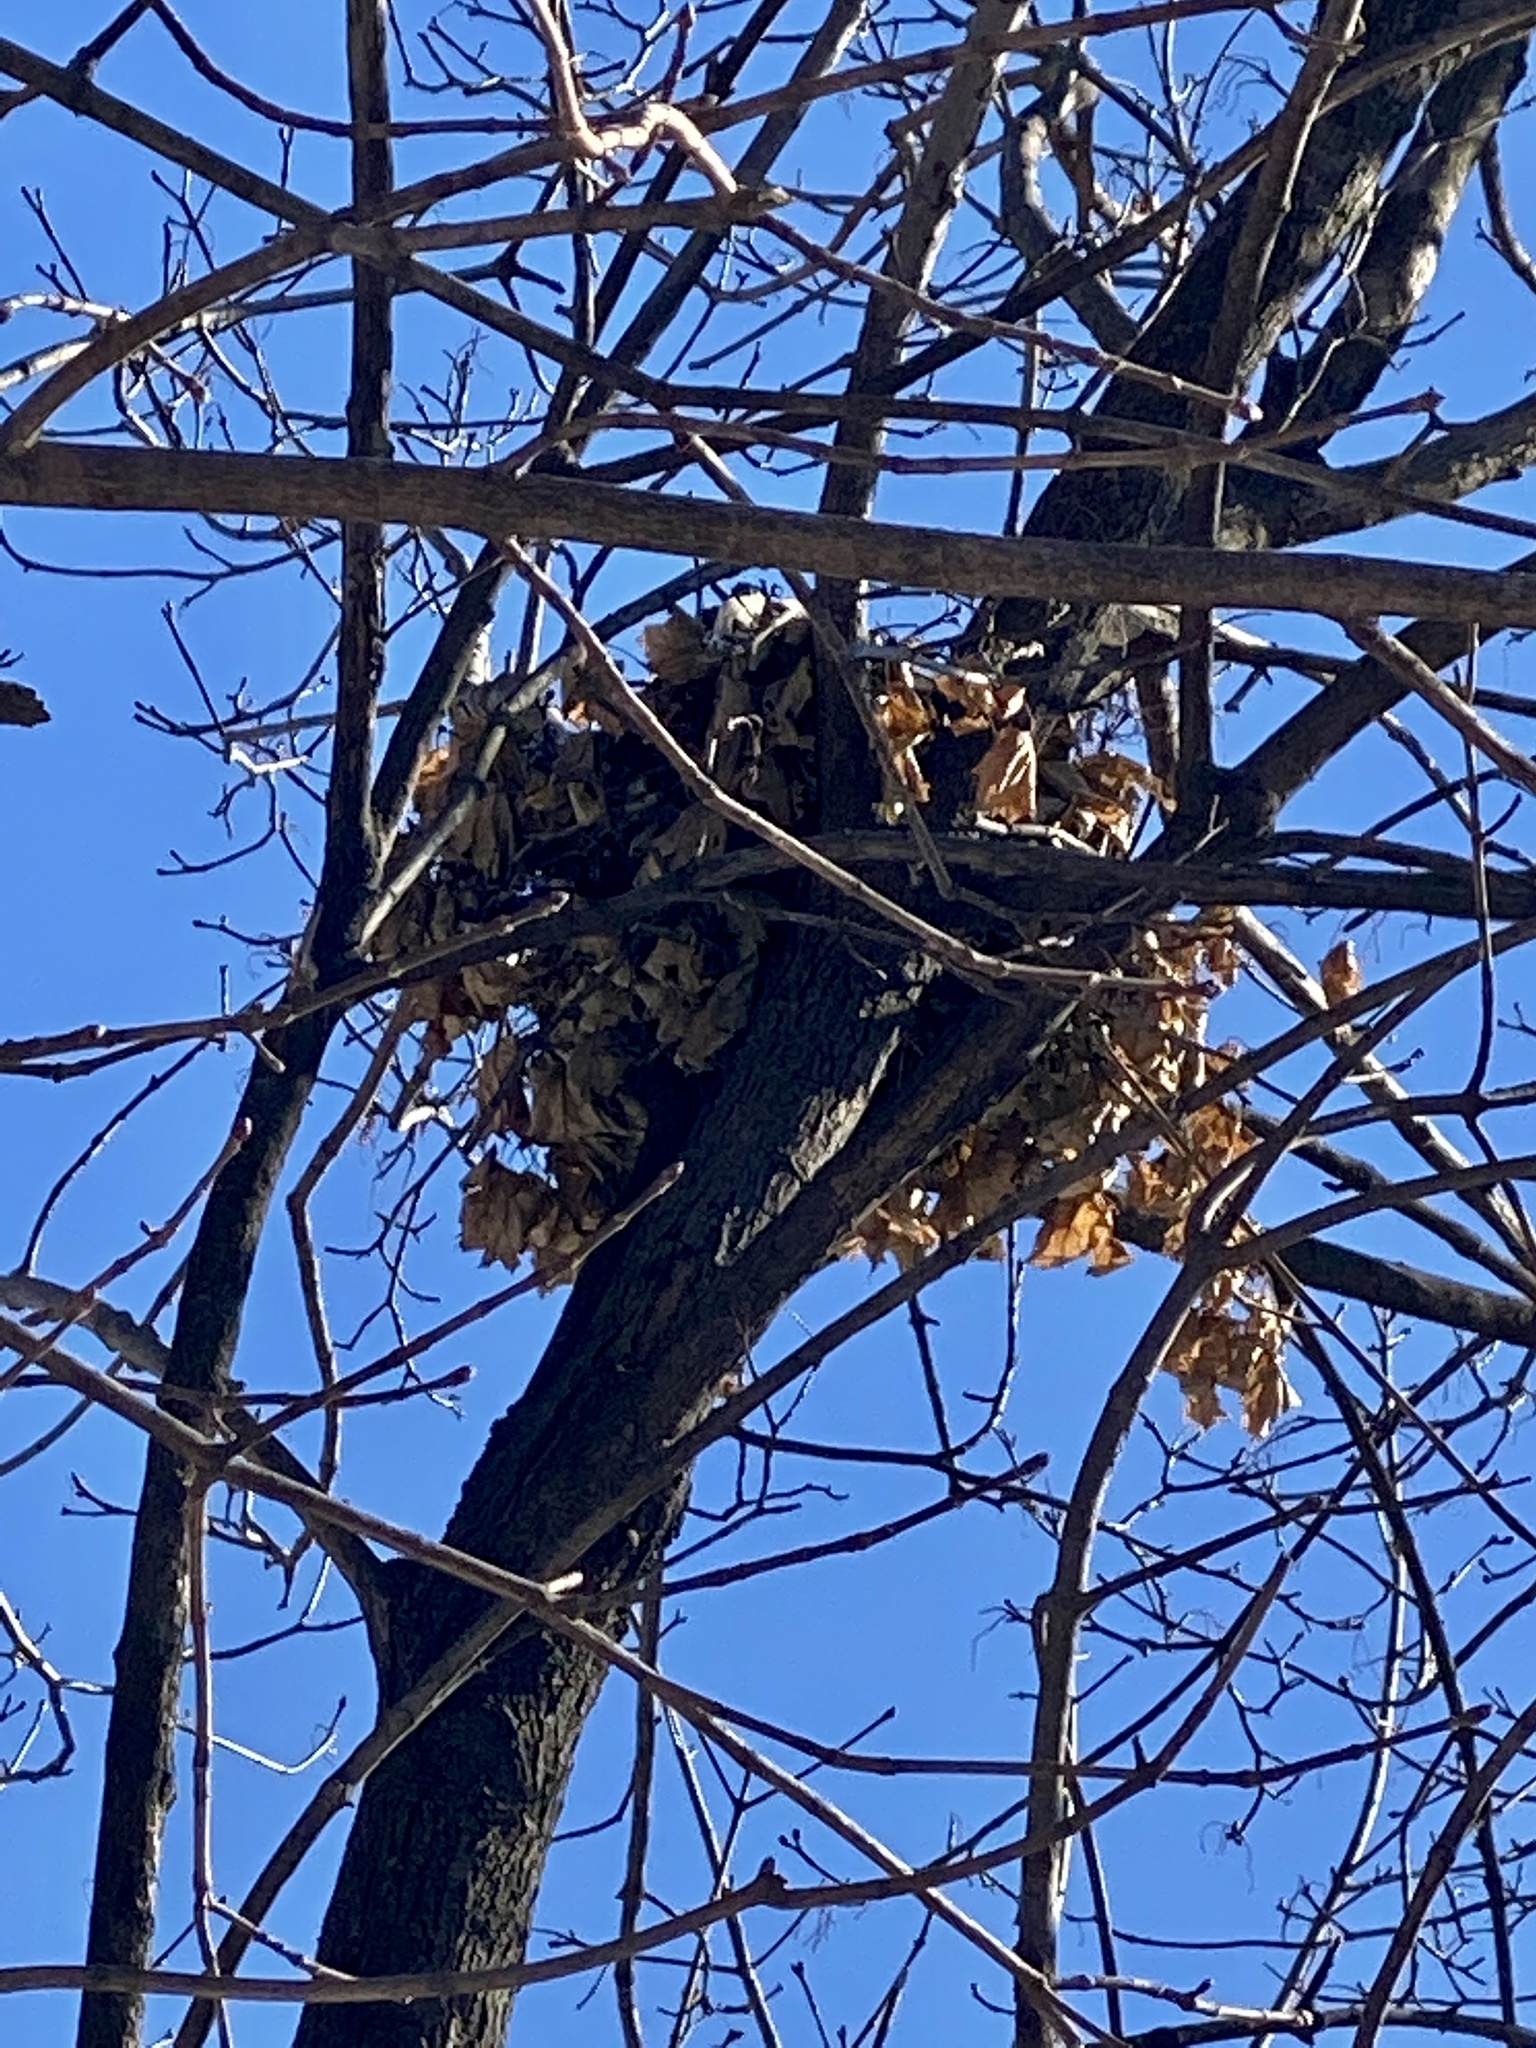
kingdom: Animalia
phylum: Chordata
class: Mammalia
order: Rodentia
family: Sciuridae
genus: Sciurus
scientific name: Sciurus carolinensis
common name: Eastern gray squirrel
